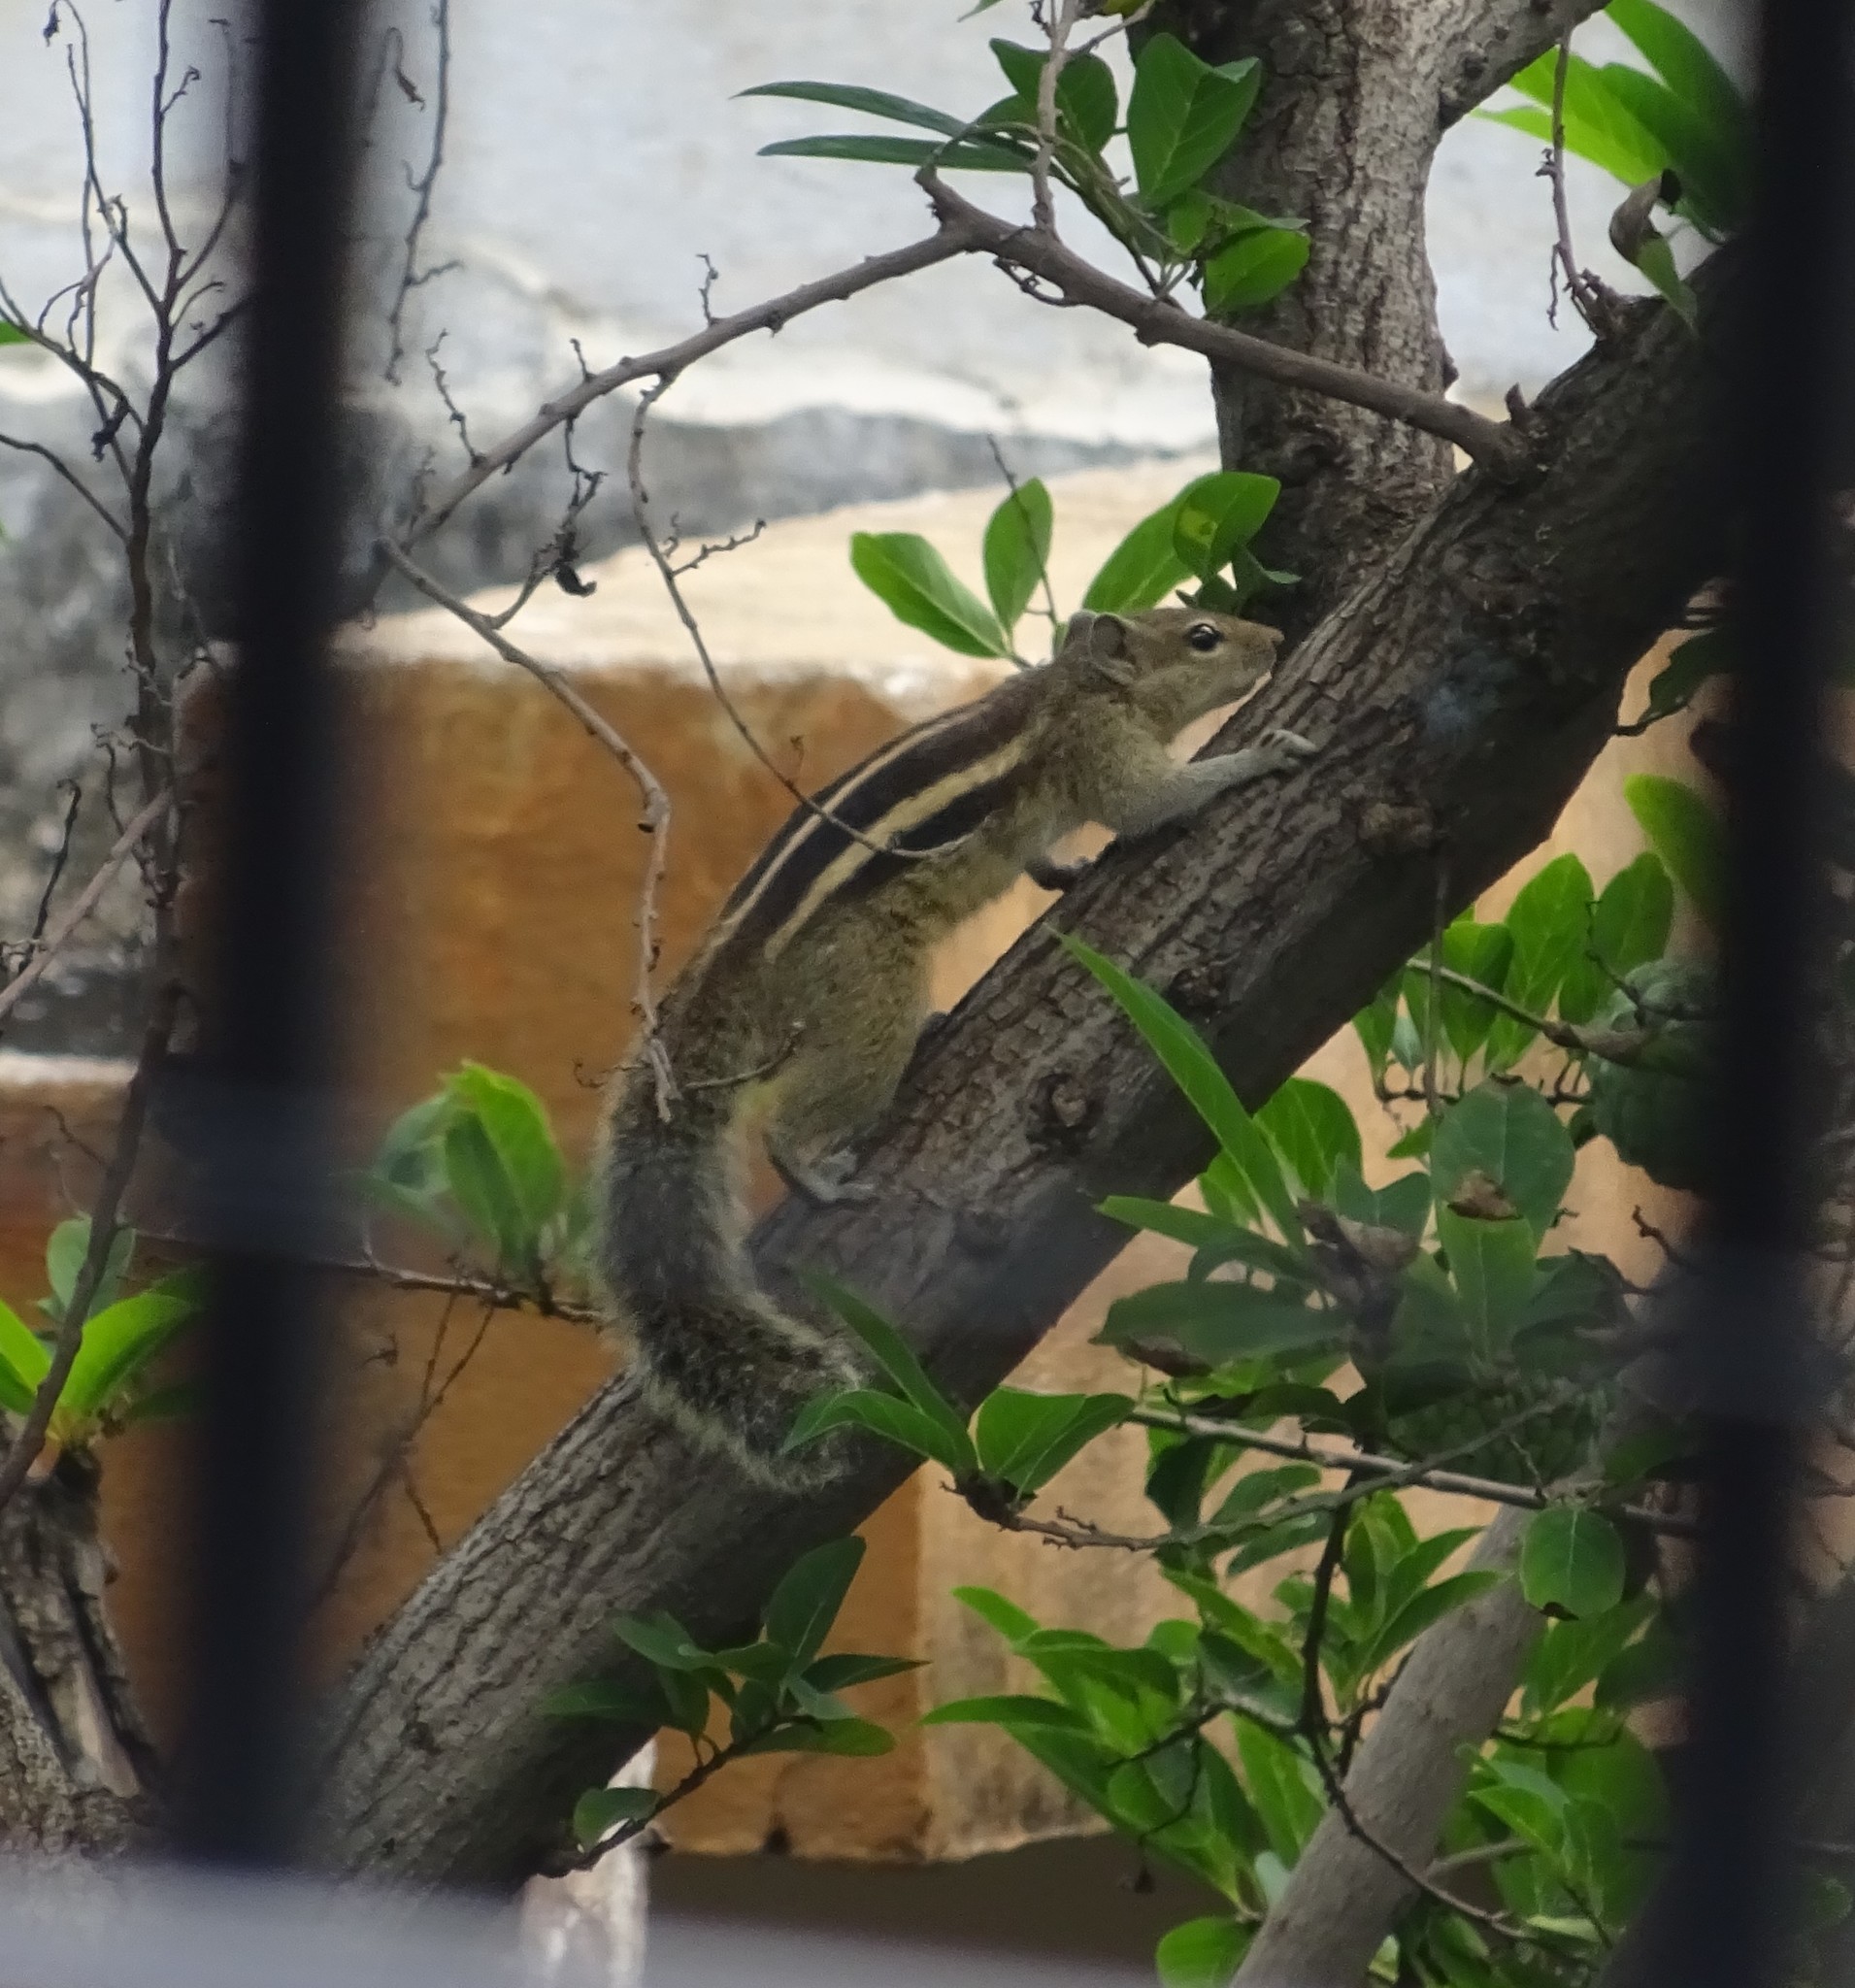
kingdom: Animalia
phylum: Chordata
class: Mammalia
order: Rodentia
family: Sciuridae
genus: Funambulus
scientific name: Funambulus palmarum
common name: Indian palm squirrel
